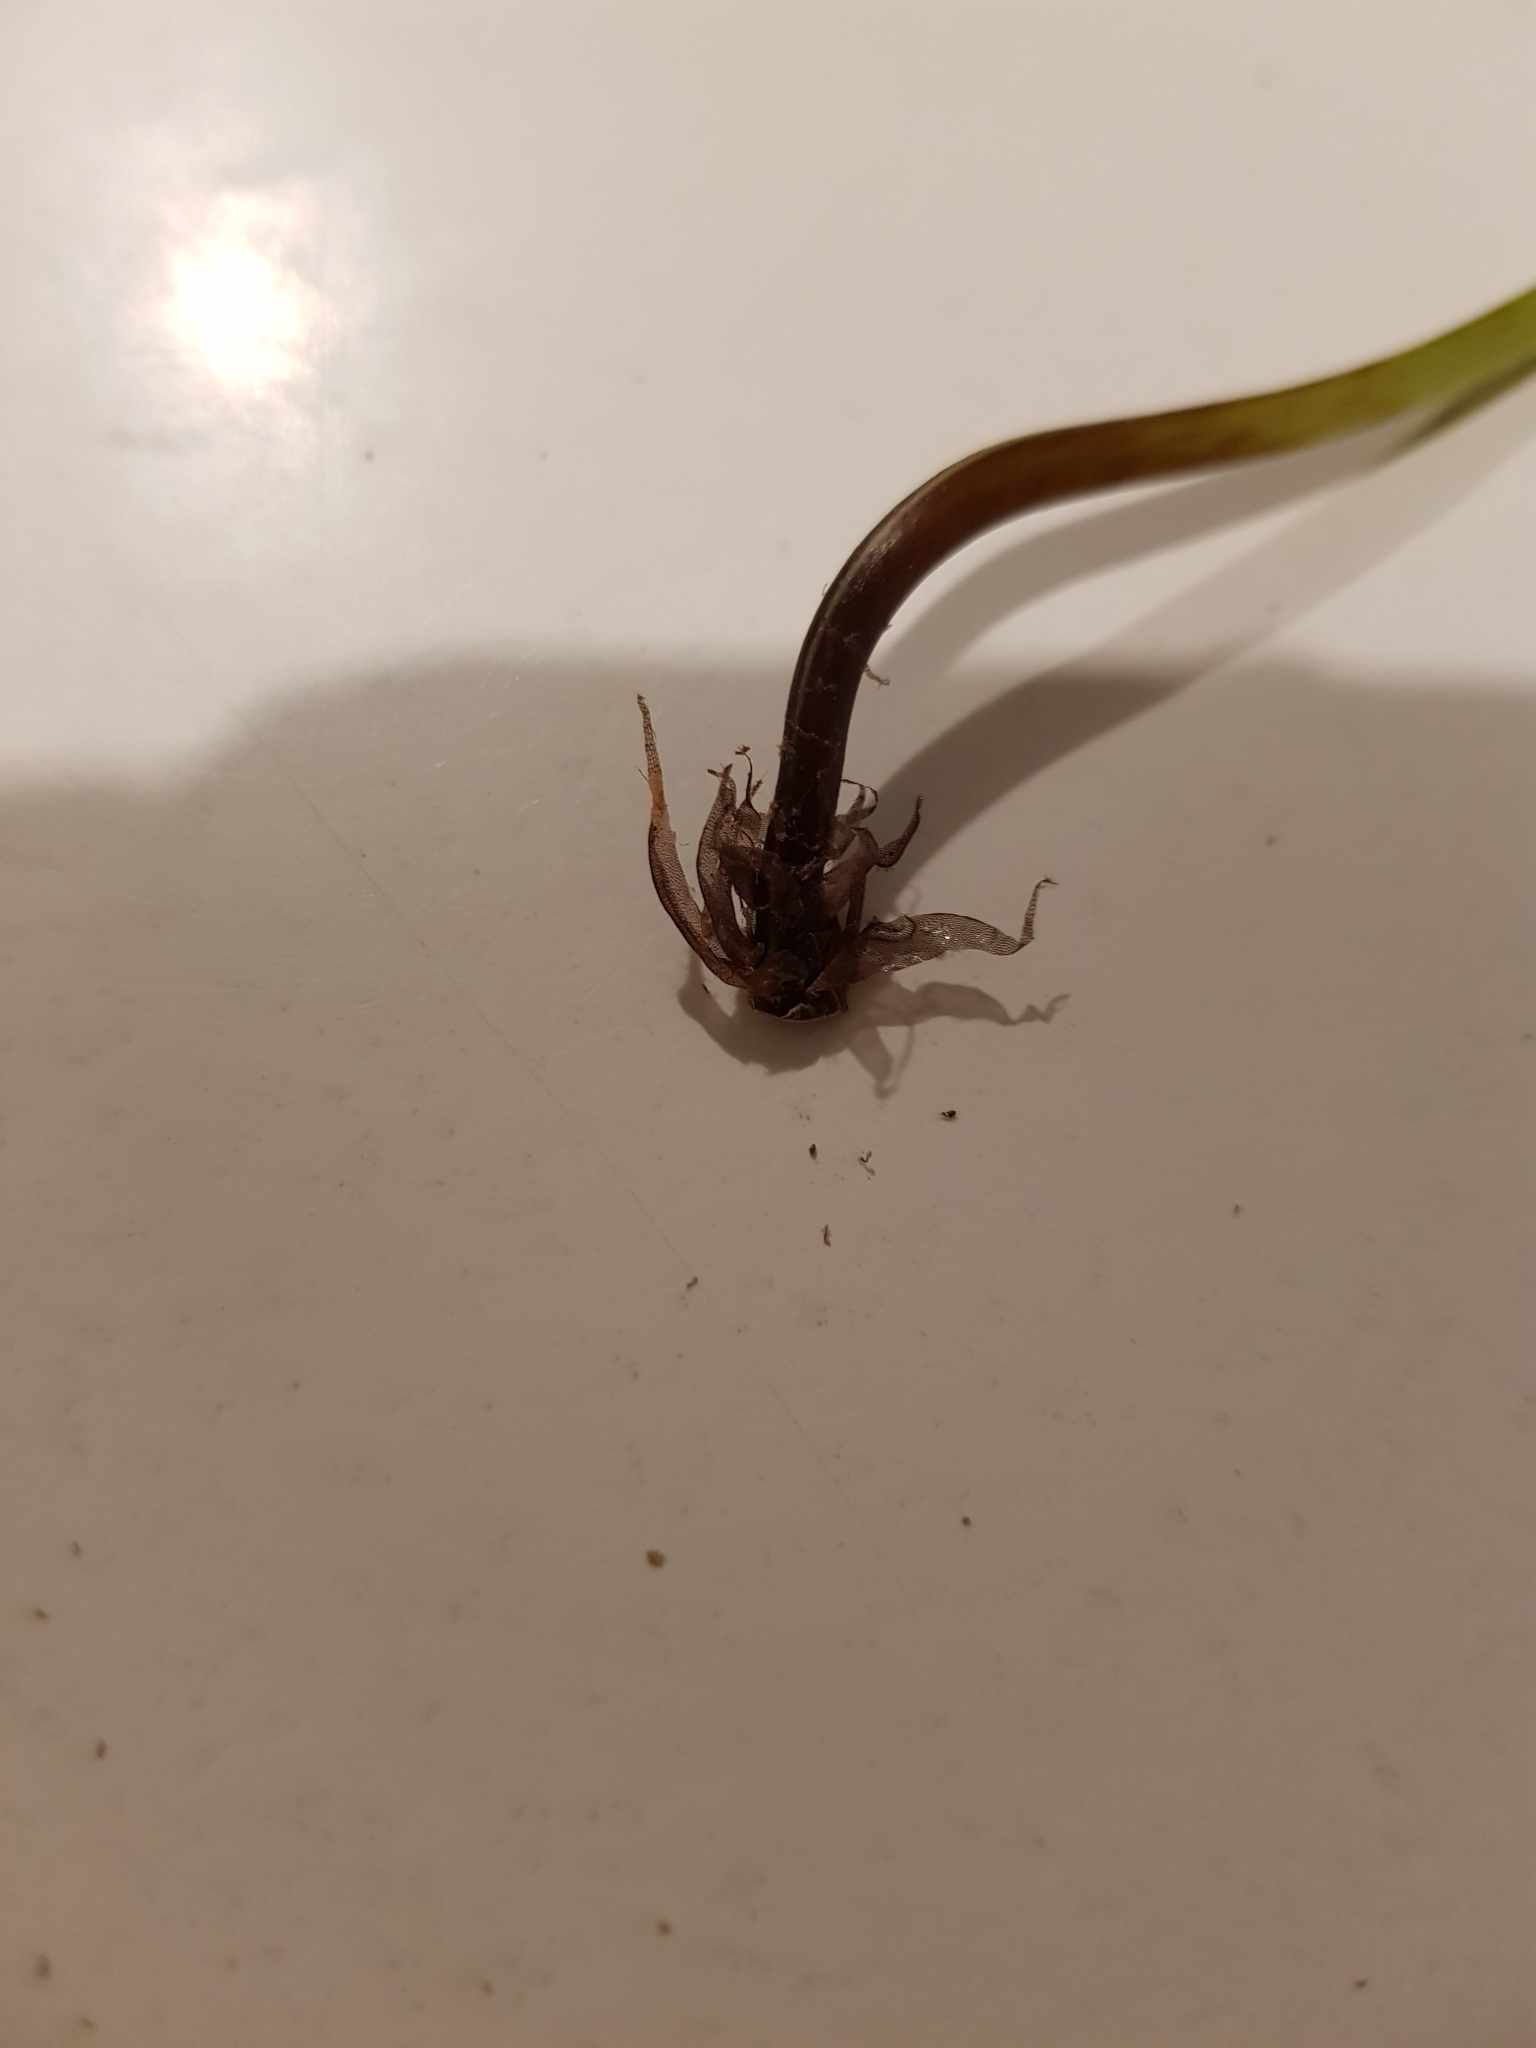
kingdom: Plantae
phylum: Tracheophyta
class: Polypodiopsida
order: Polypodiales
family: Aspleniaceae
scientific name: Aspleniaceae
